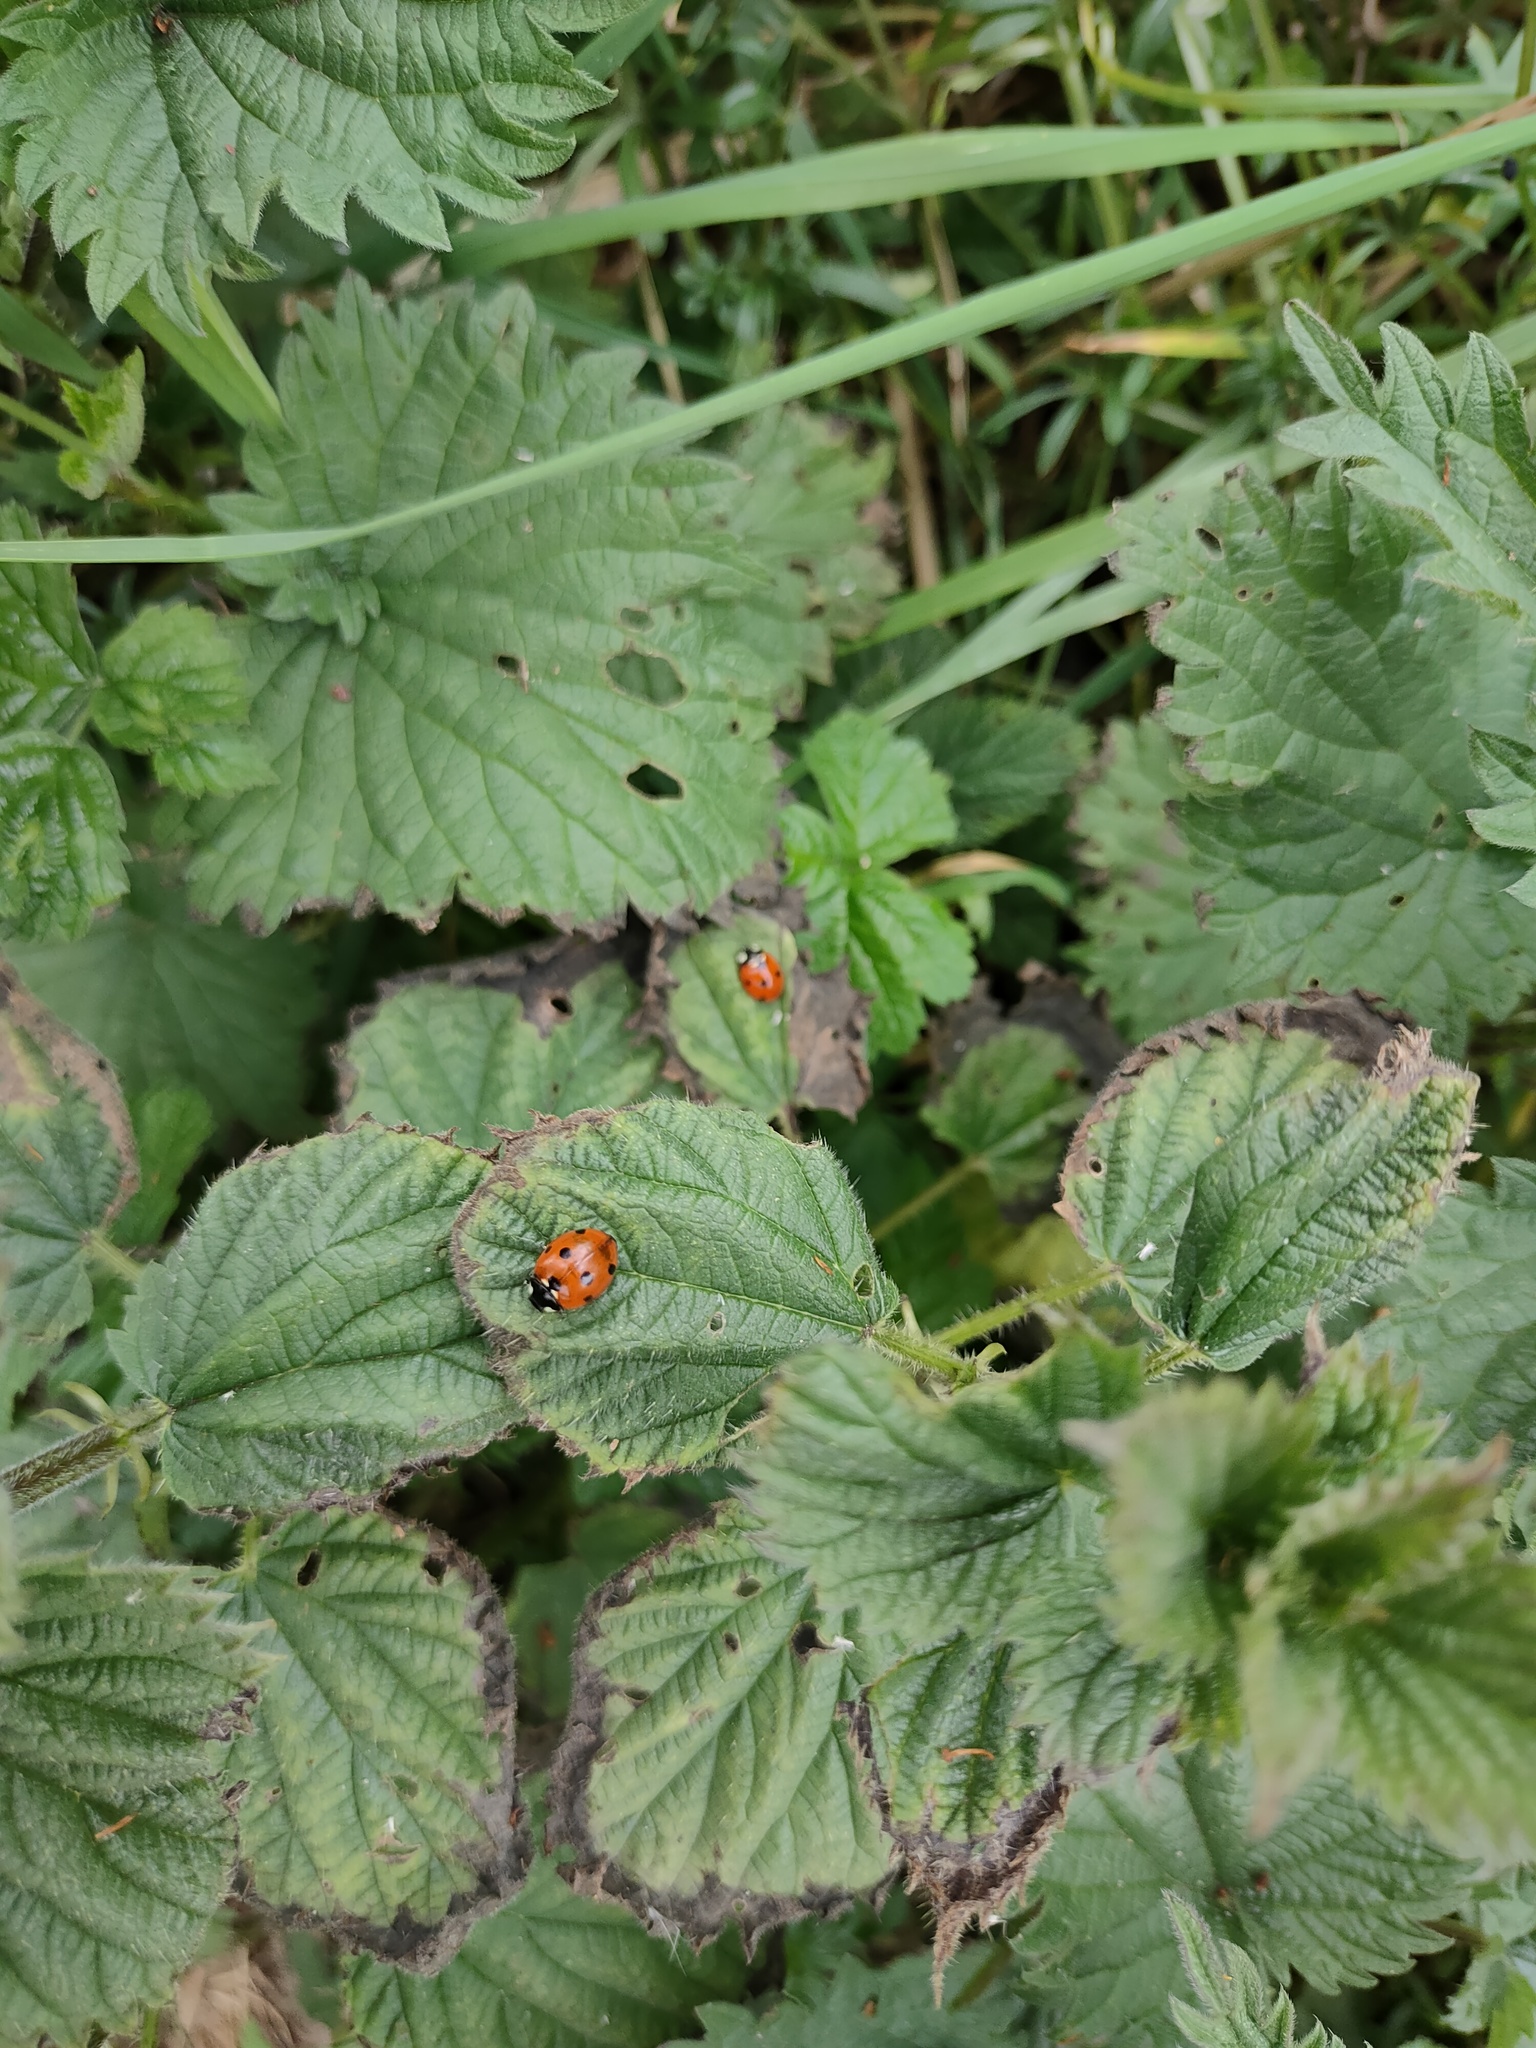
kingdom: Animalia
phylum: Arthropoda
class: Insecta
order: Coleoptera
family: Coccinellidae
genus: Coccinella
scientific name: Coccinella septempunctata
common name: Sevenspotted lady beetle
